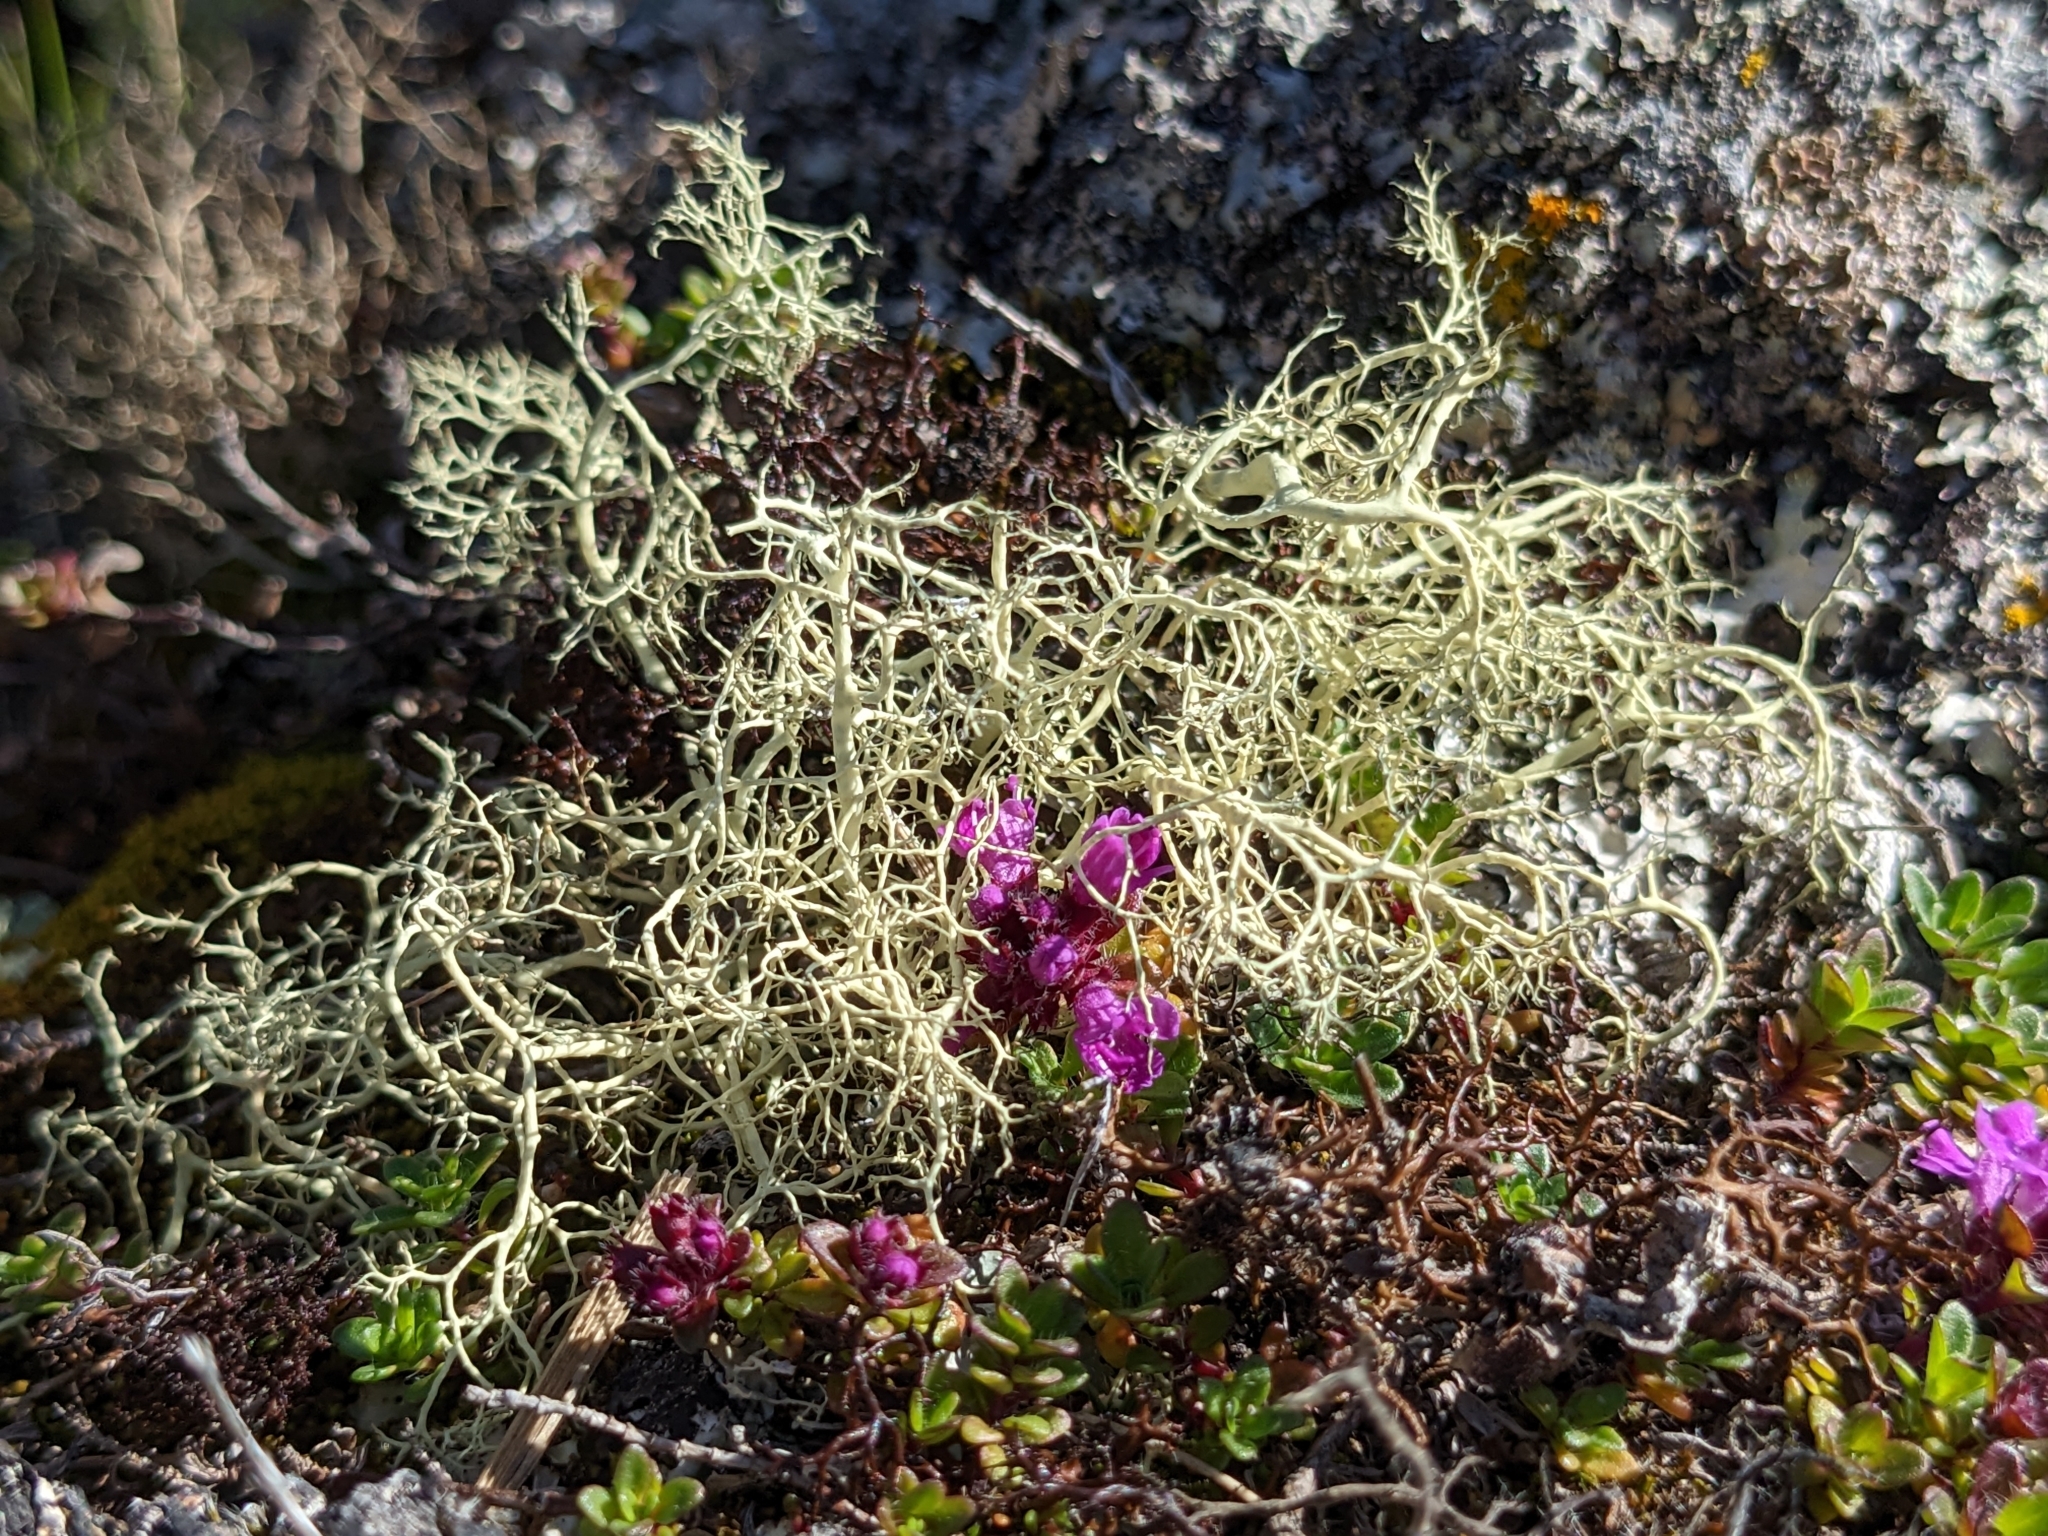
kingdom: Fungi
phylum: Ascomycota
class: Lecanoromycetes
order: Lecanorales
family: Parmeliaceae
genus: Alectoria
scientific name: Alectoria ochroleuca
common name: Alpine sulphur-tresses
